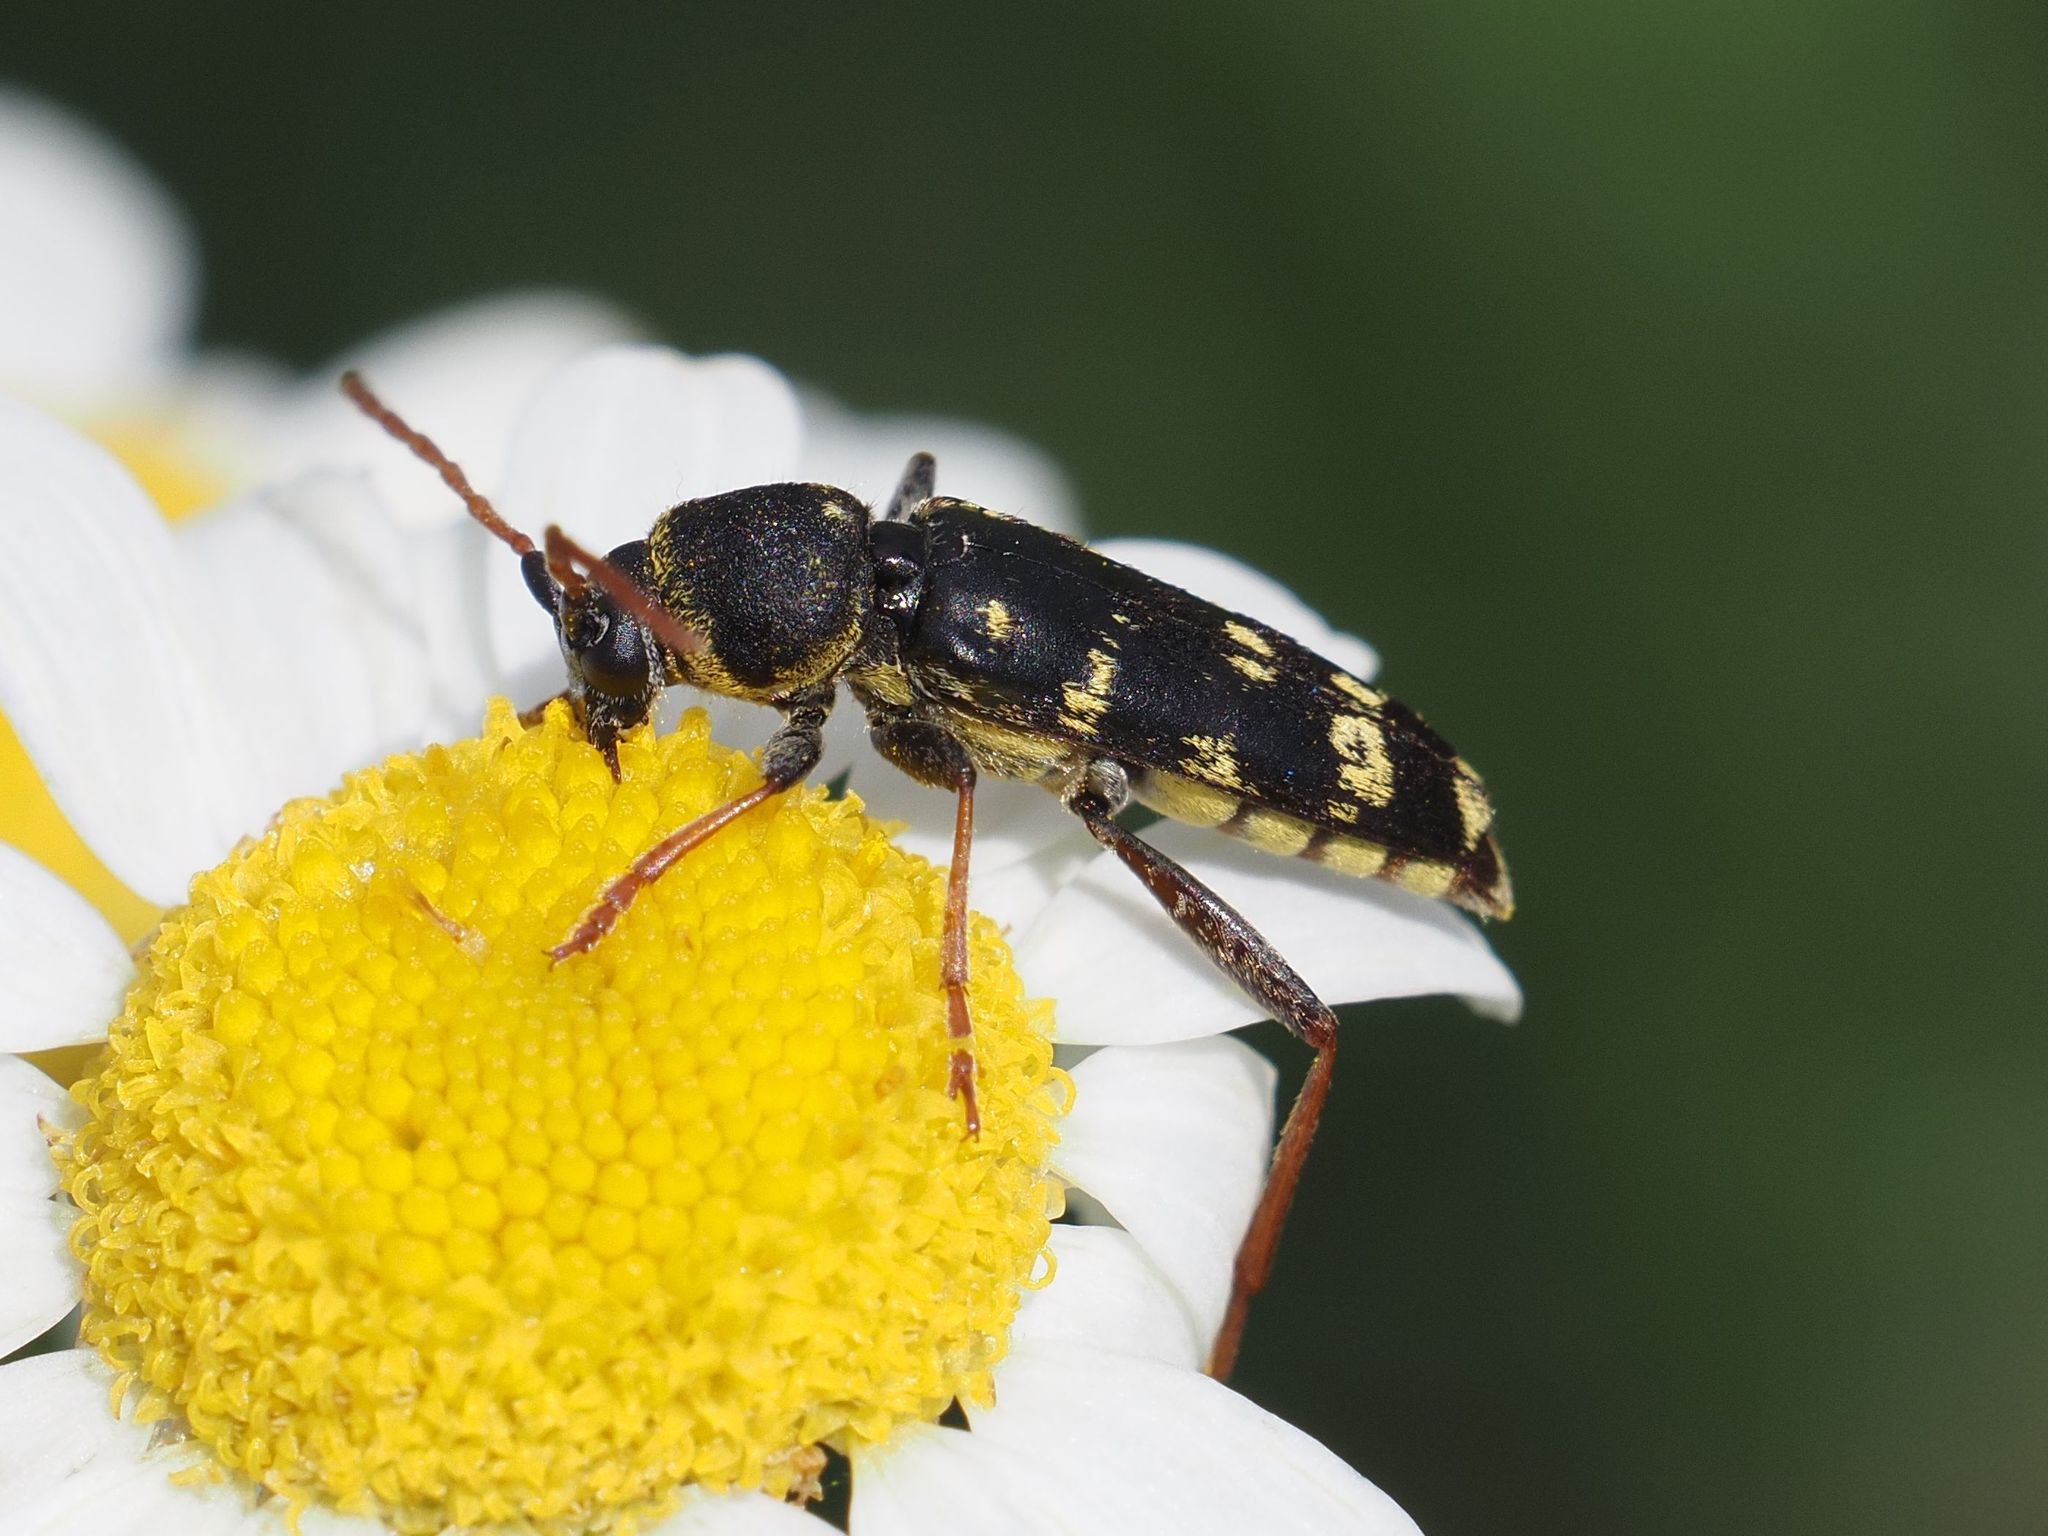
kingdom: Animalia
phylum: Arthropoda
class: Insecta
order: Coleoptera
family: Cerambycidae
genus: Plagionotus
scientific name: Plagionotus floralis
